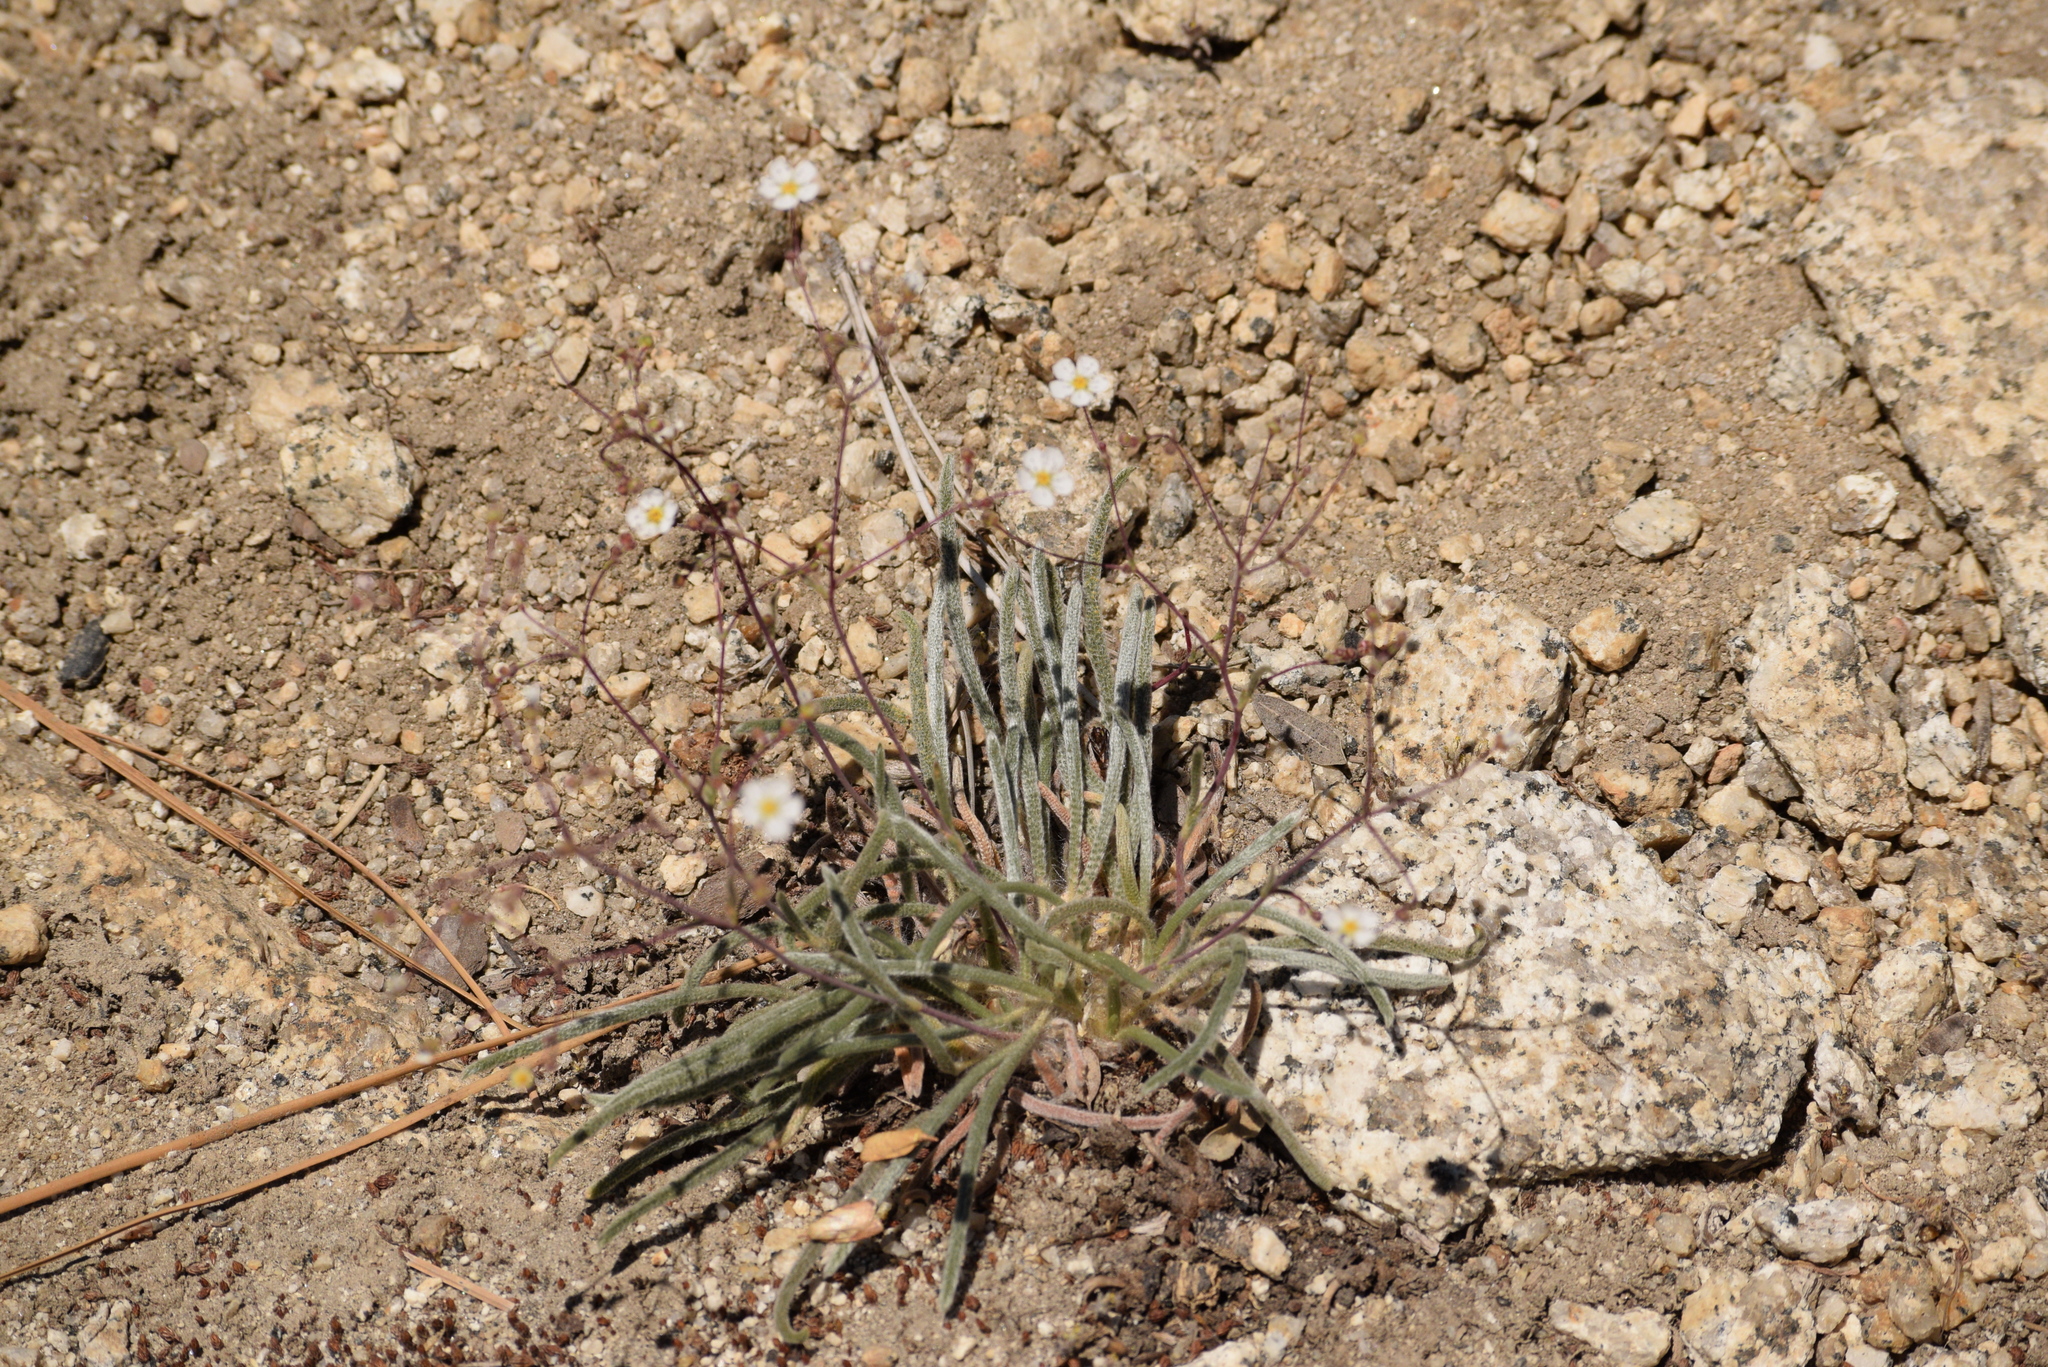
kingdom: Plantae
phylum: Tracheophyta
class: Magnoliopsida
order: Rosales
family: Rosaceae
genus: Potentilla
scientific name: Potentilla santolinoides
